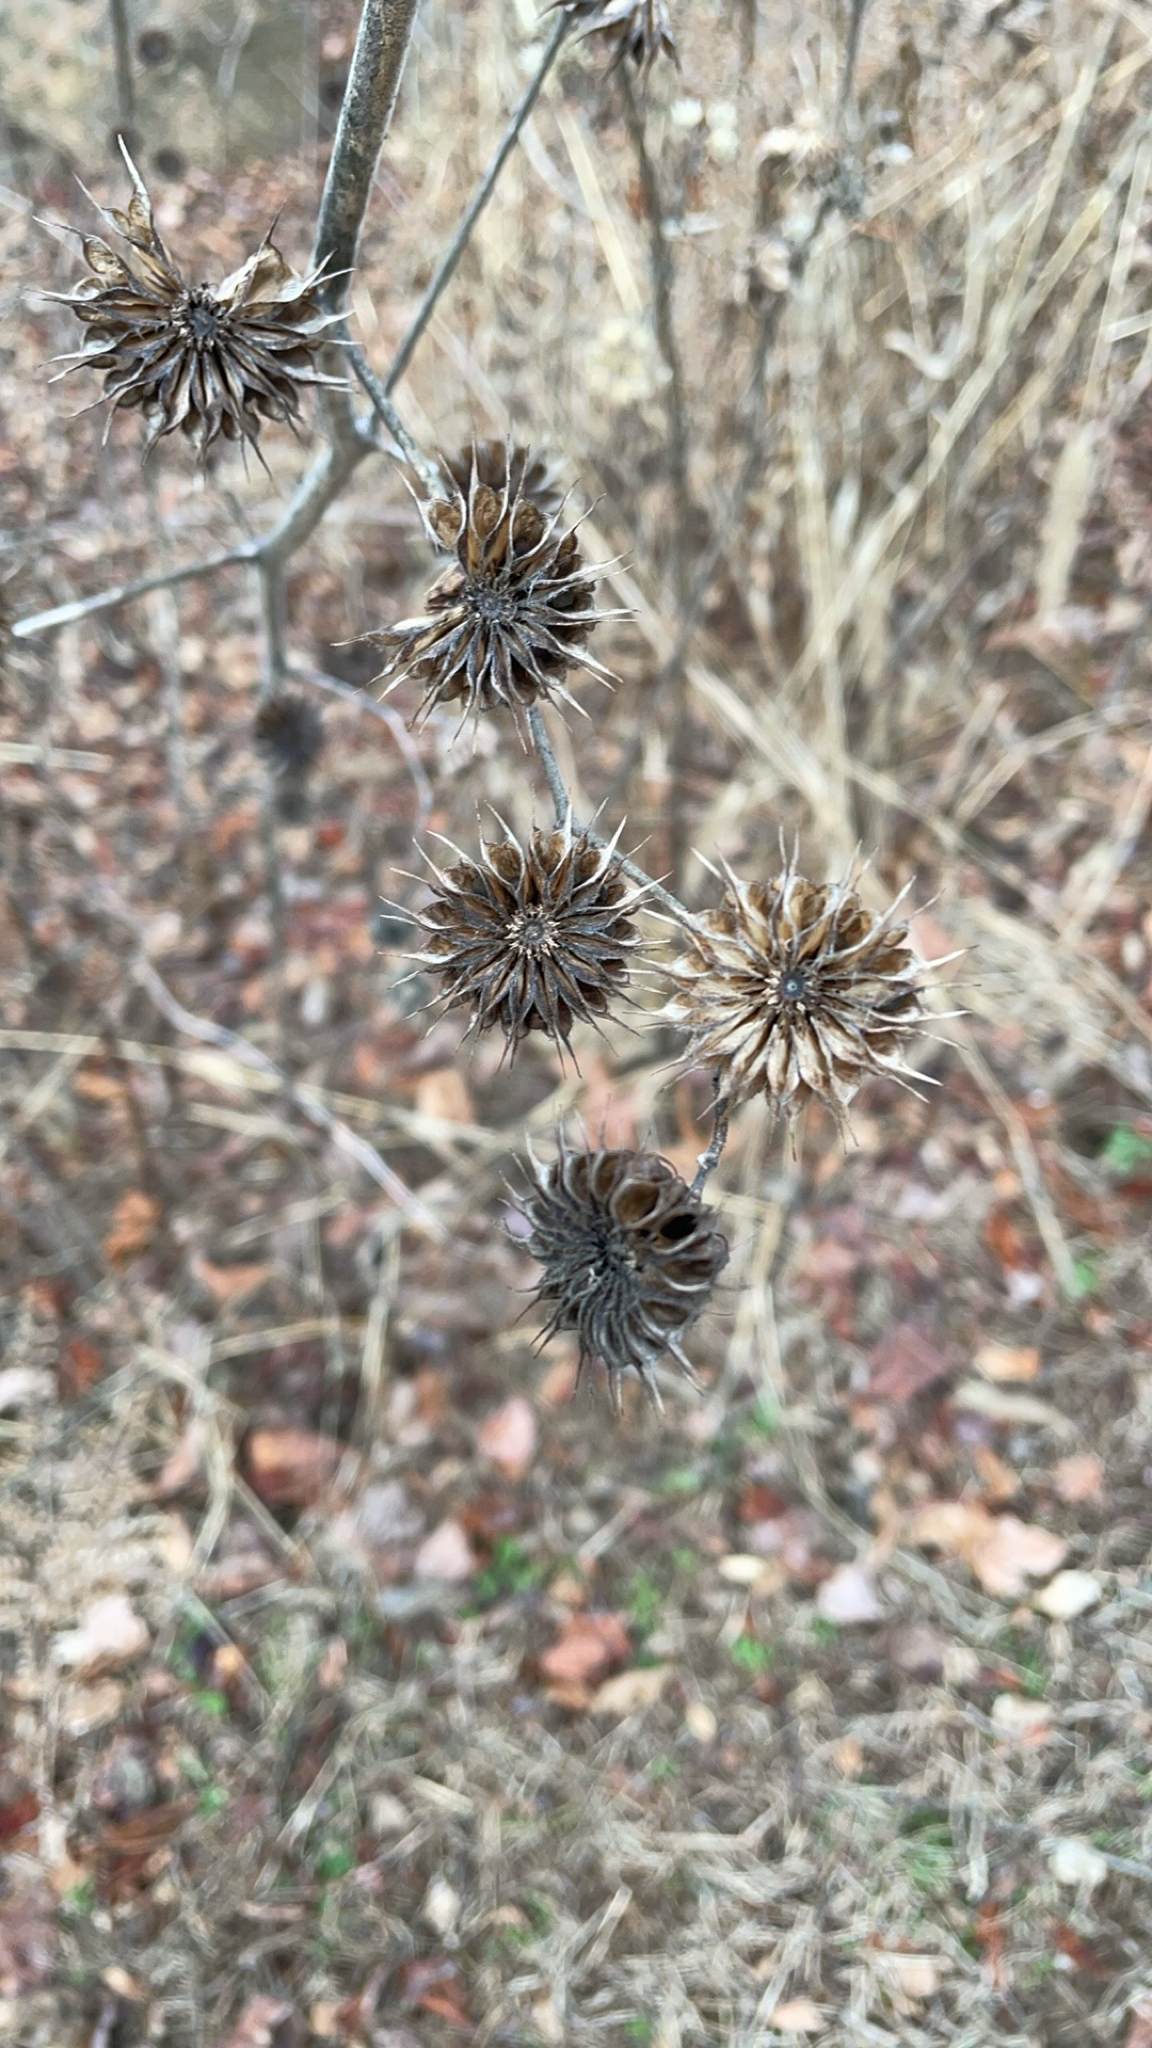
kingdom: Plantae
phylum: Tracheophyta
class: Magnoliopsida
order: Malvales
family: Malvaceae
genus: Abutilon
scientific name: Abutilon theophrasti
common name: Velvetleaf
